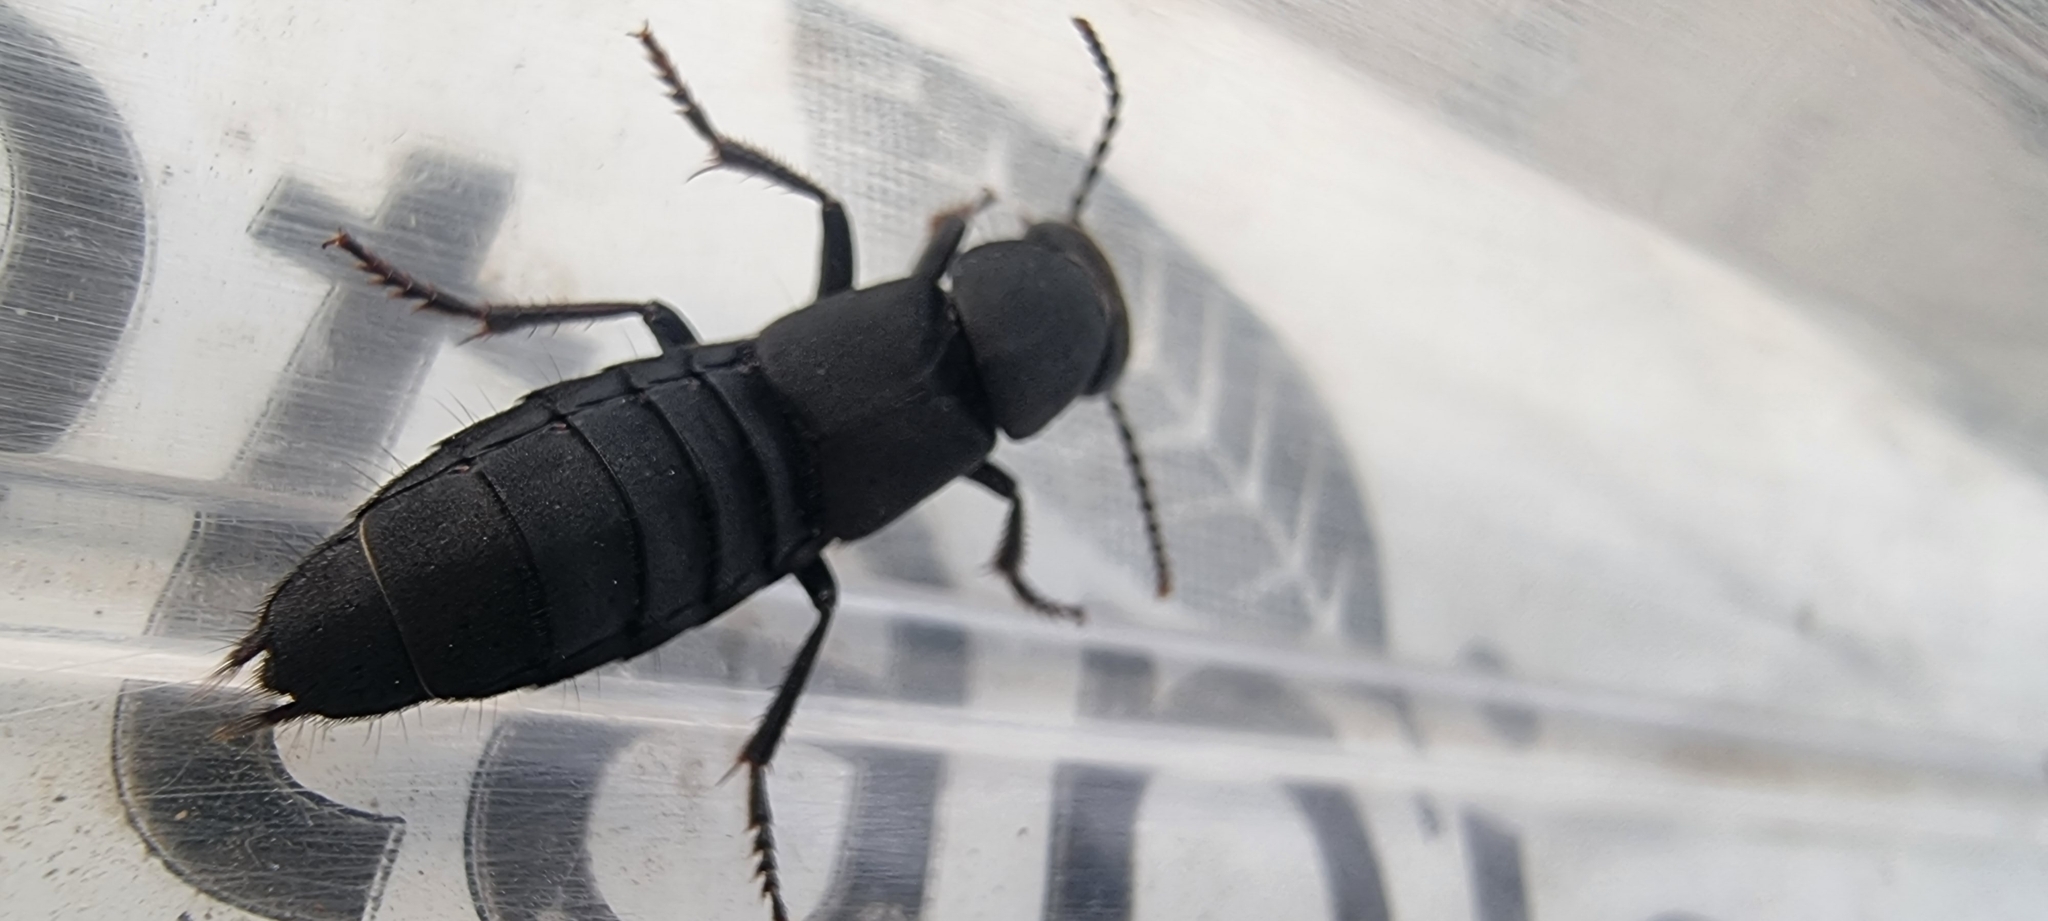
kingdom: Animalia
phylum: Arthropoda
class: Insecta
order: Coleoptera
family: Staphylinidae
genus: Ocypus
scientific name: Ocypus olens
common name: Devil's coach-horse
